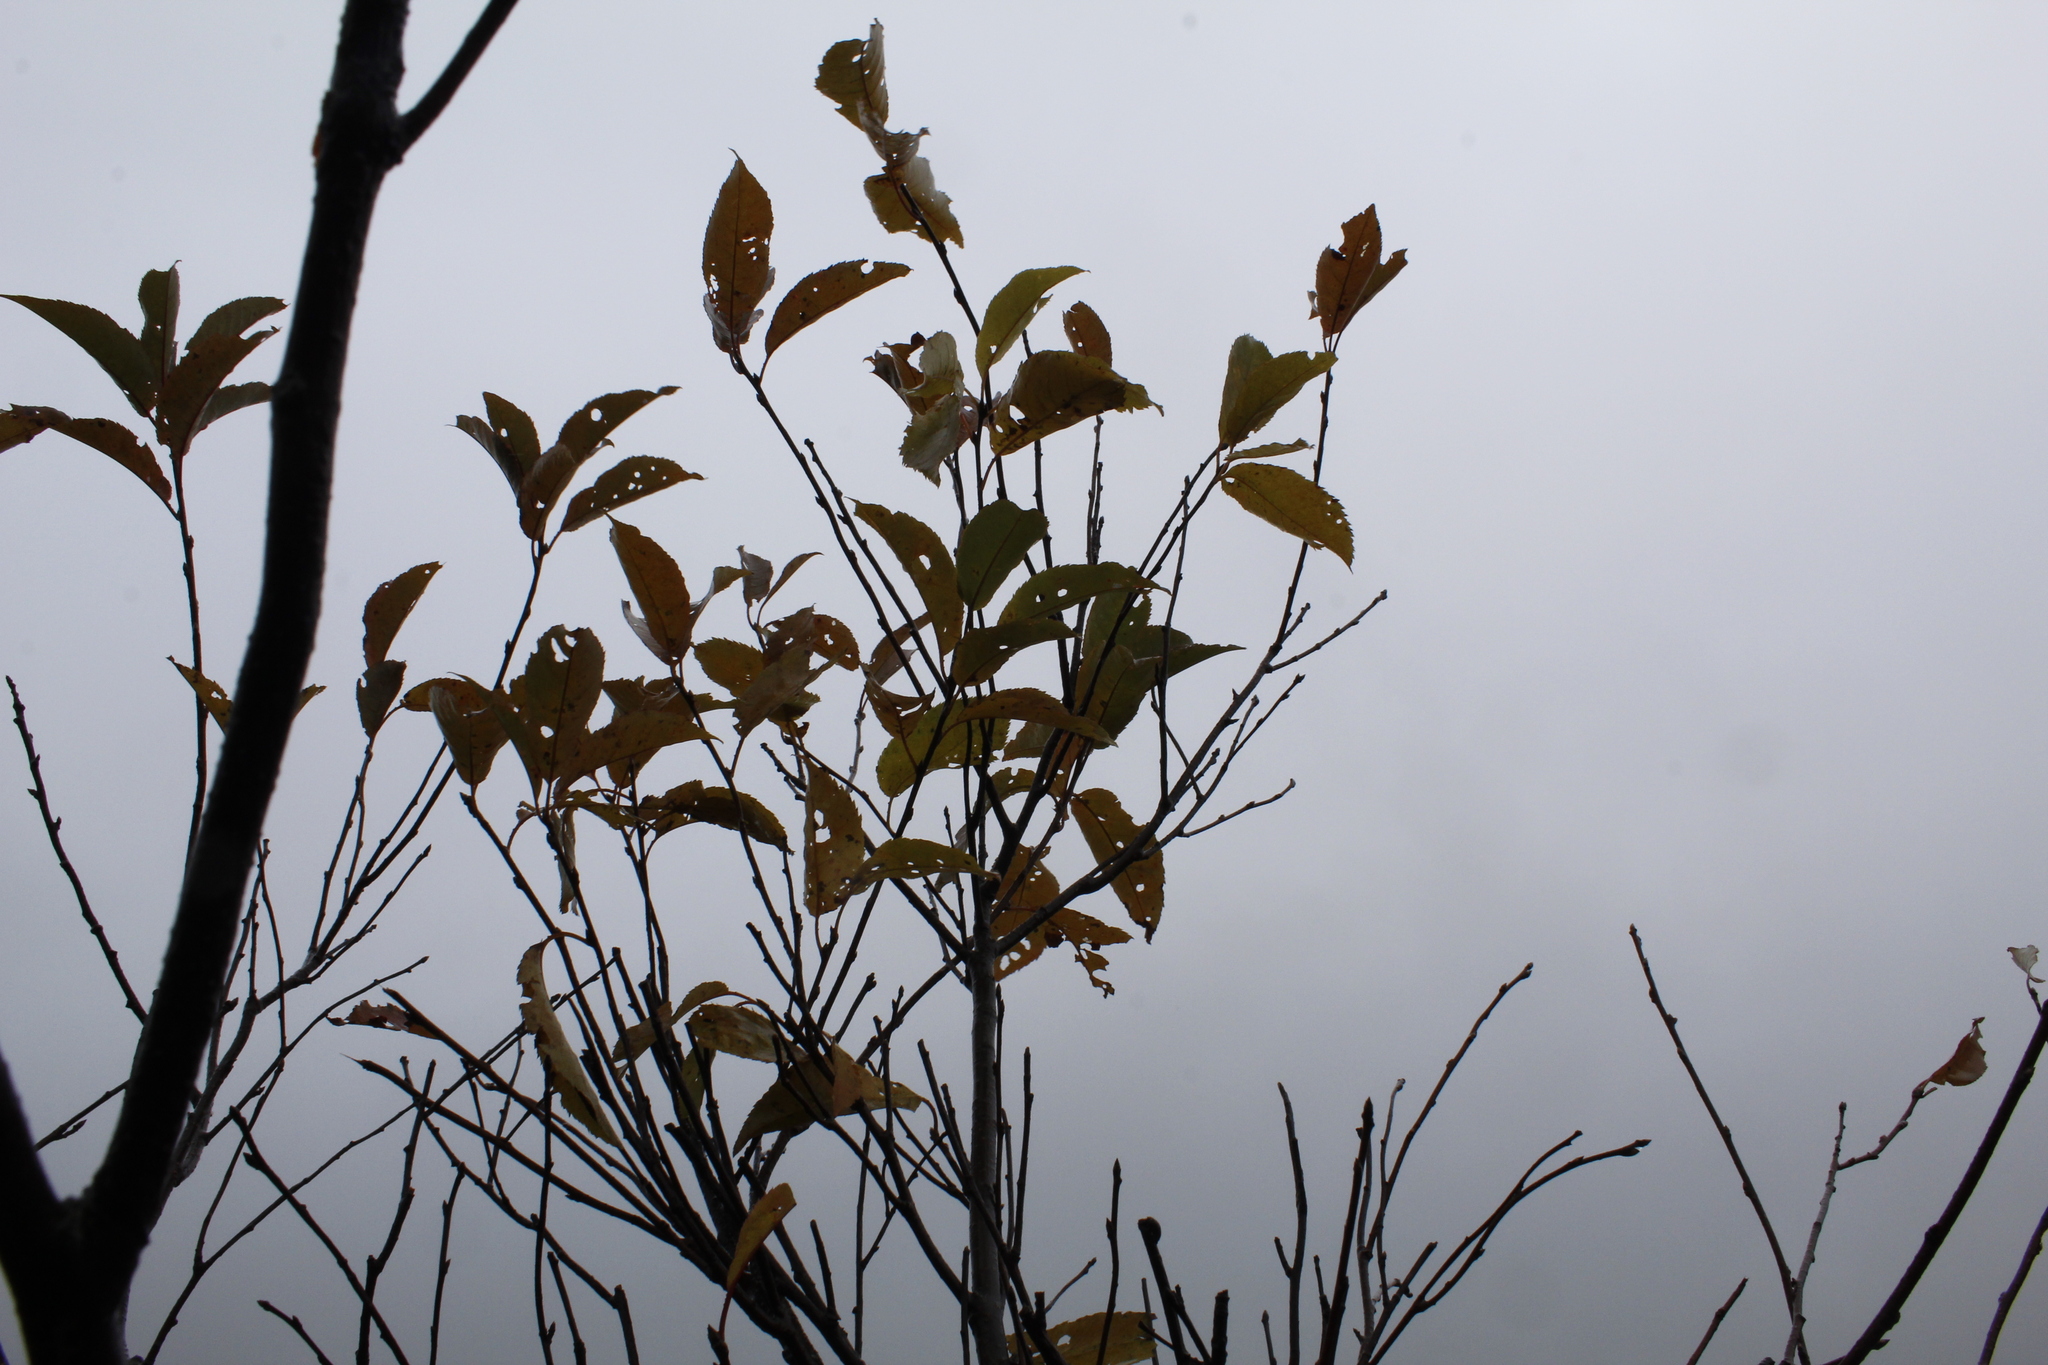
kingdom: Plantae
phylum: Tracheophyta
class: Magnoliopsida
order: Rosales
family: Rosaceae
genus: Prunus
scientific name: Prunus virginiana
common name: Chokecherry
